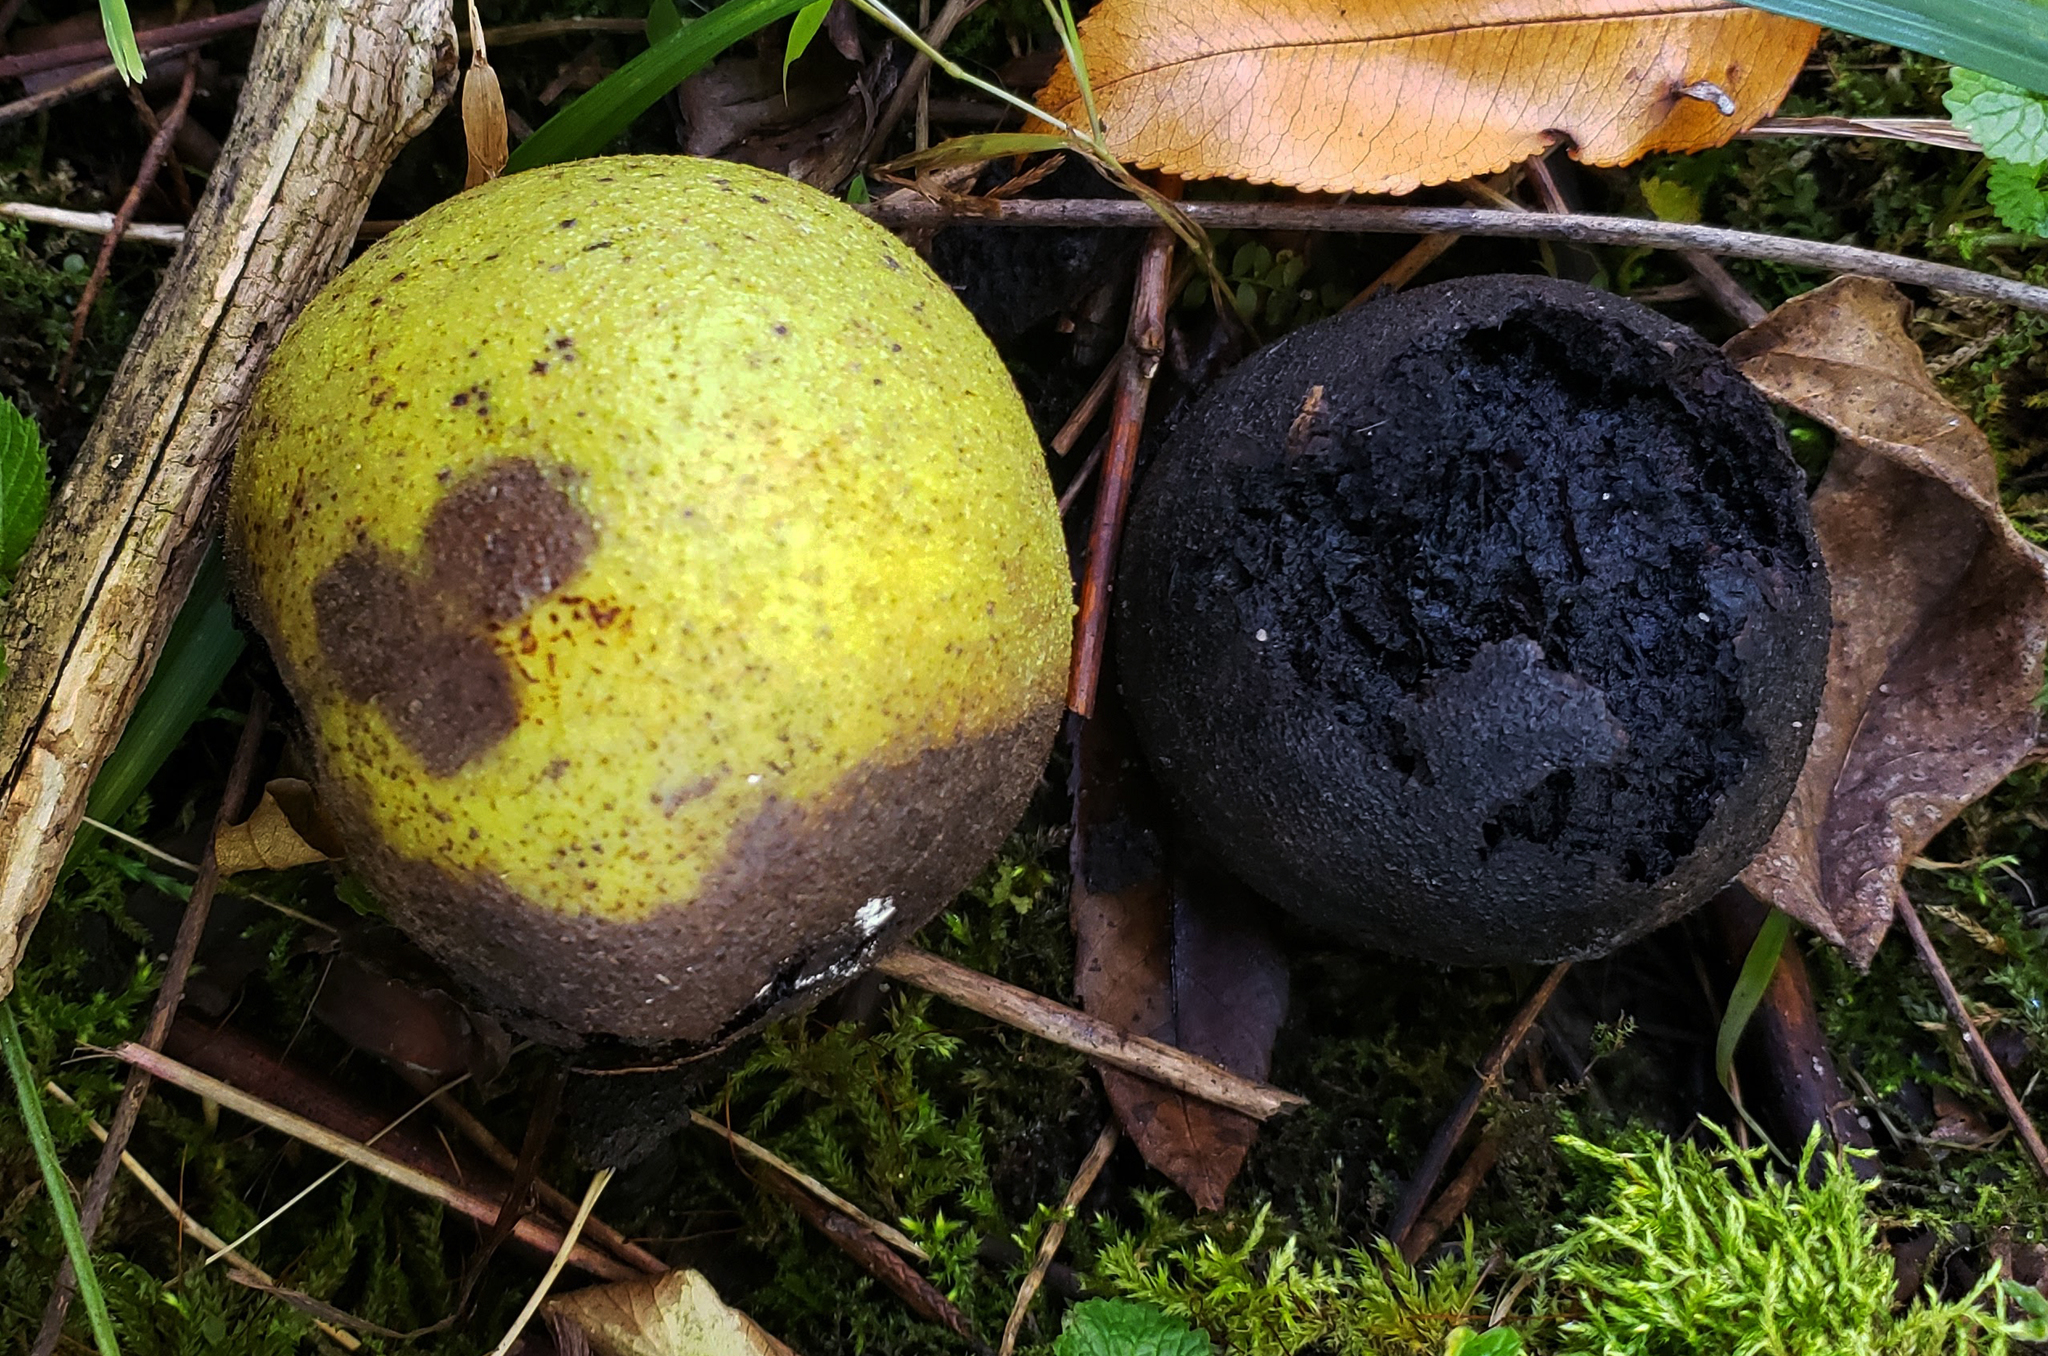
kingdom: Plantae
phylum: Tracheophyta
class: Magnoliopsida
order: Fagales
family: Juglandaceae
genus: Juglans
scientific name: Juglans nigra
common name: Black walnut
